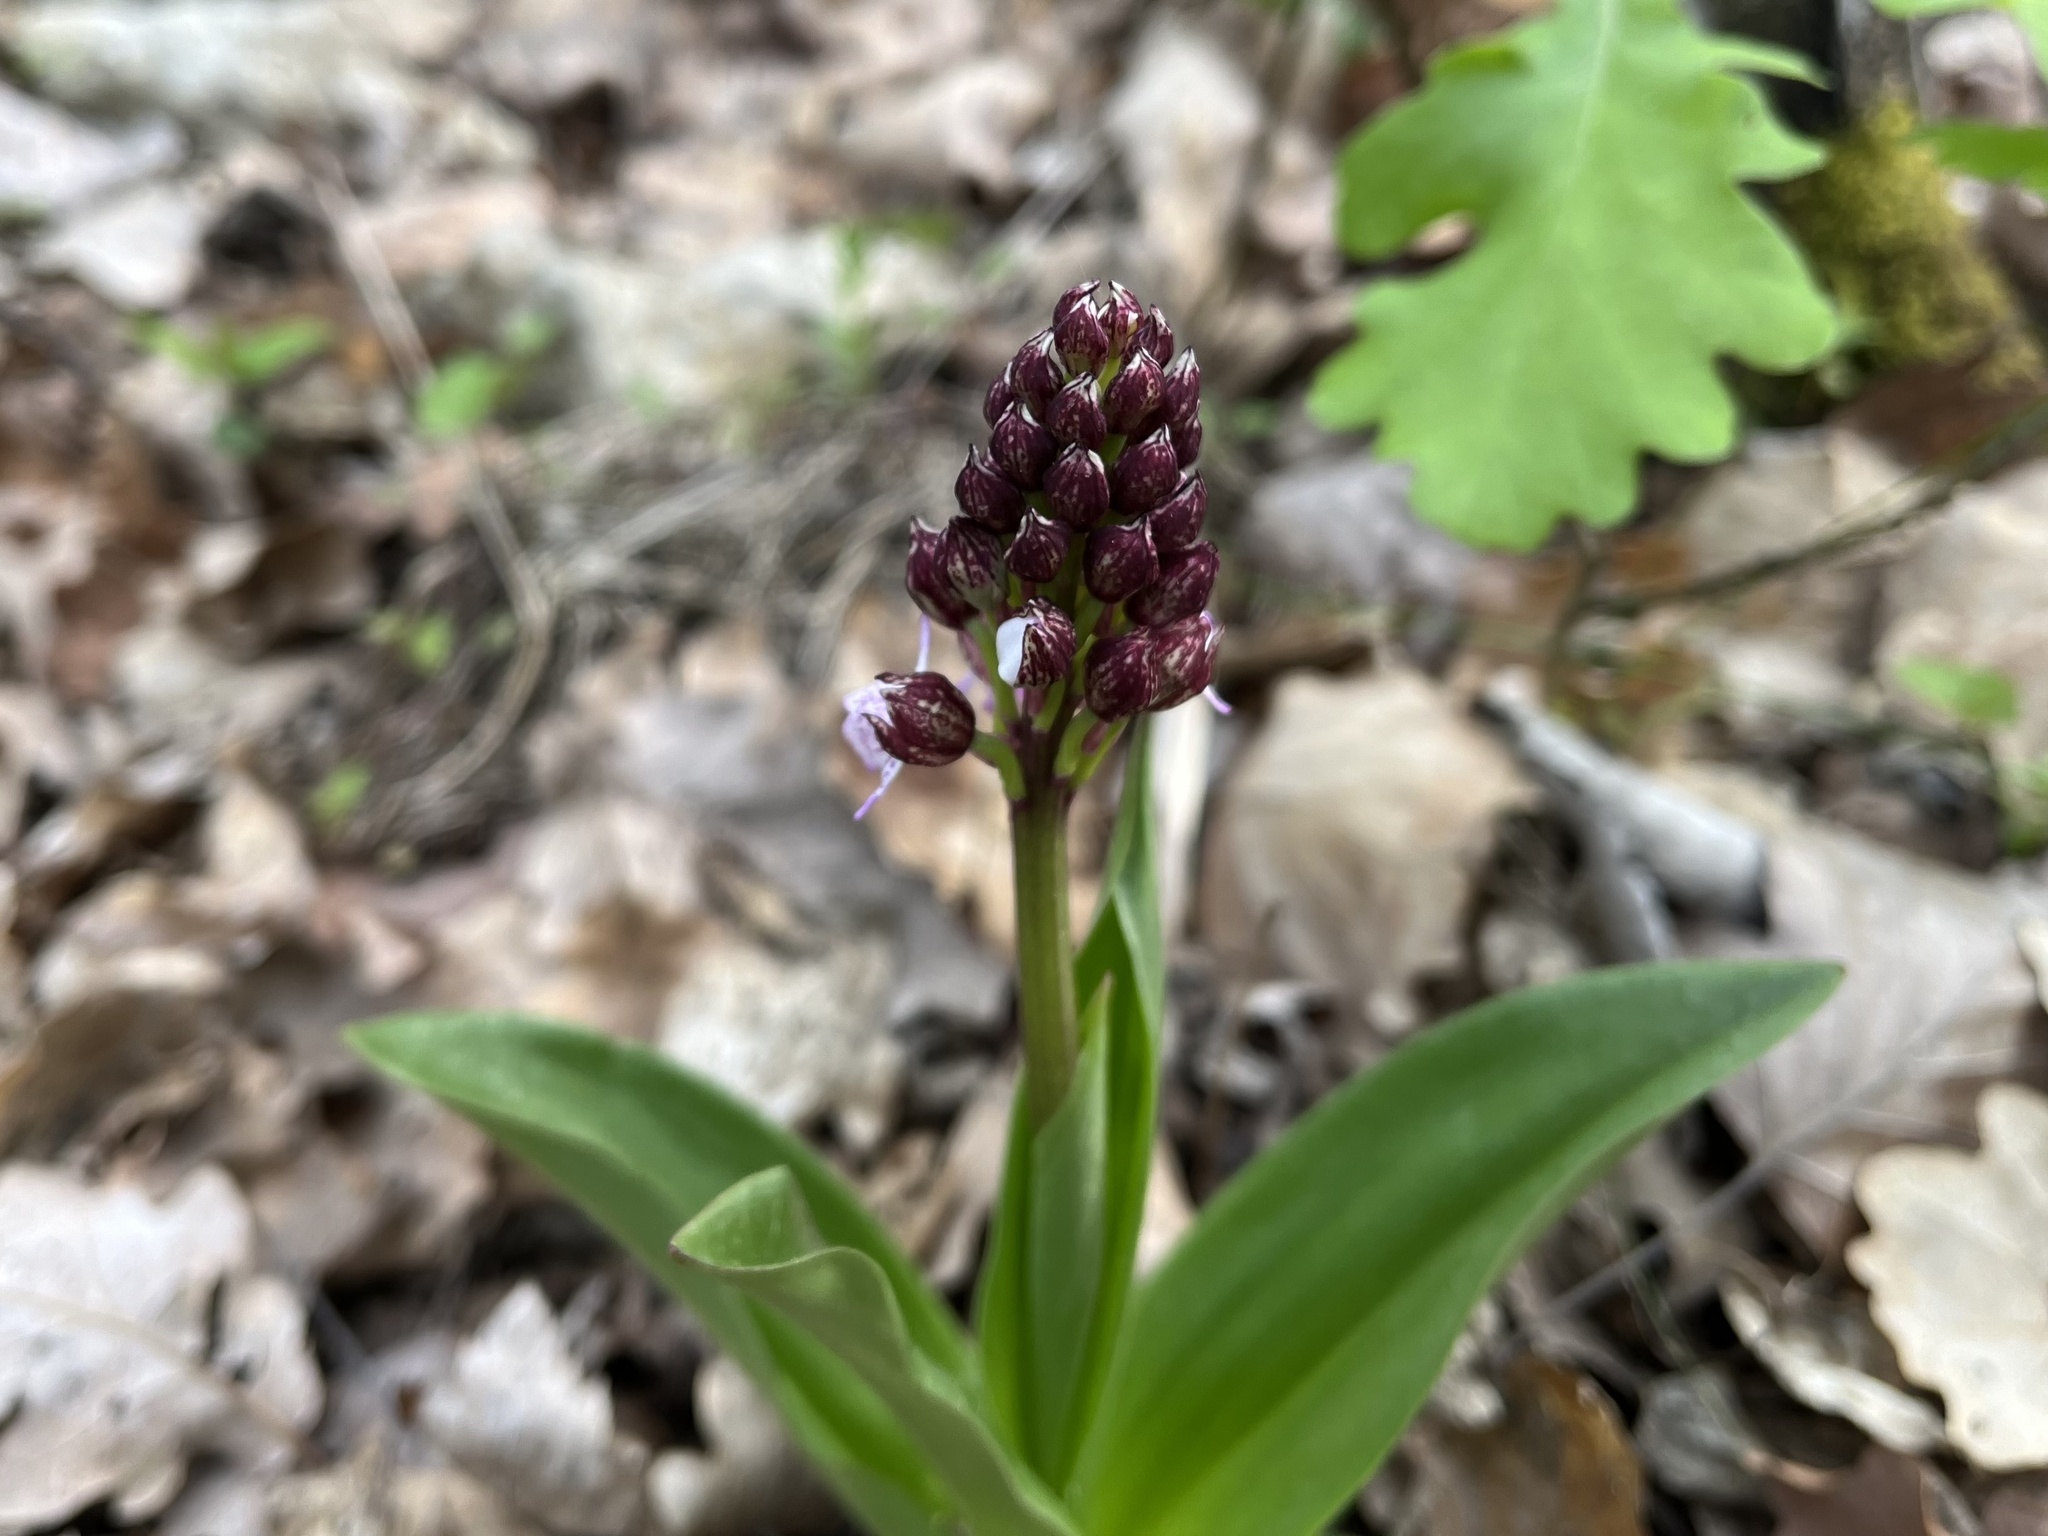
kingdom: Plantae
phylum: Tracheophyta
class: Liliopsida
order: Asparagales
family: Orchidaceae
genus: Orchis
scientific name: Orchis purpurea
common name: Lady orchid
